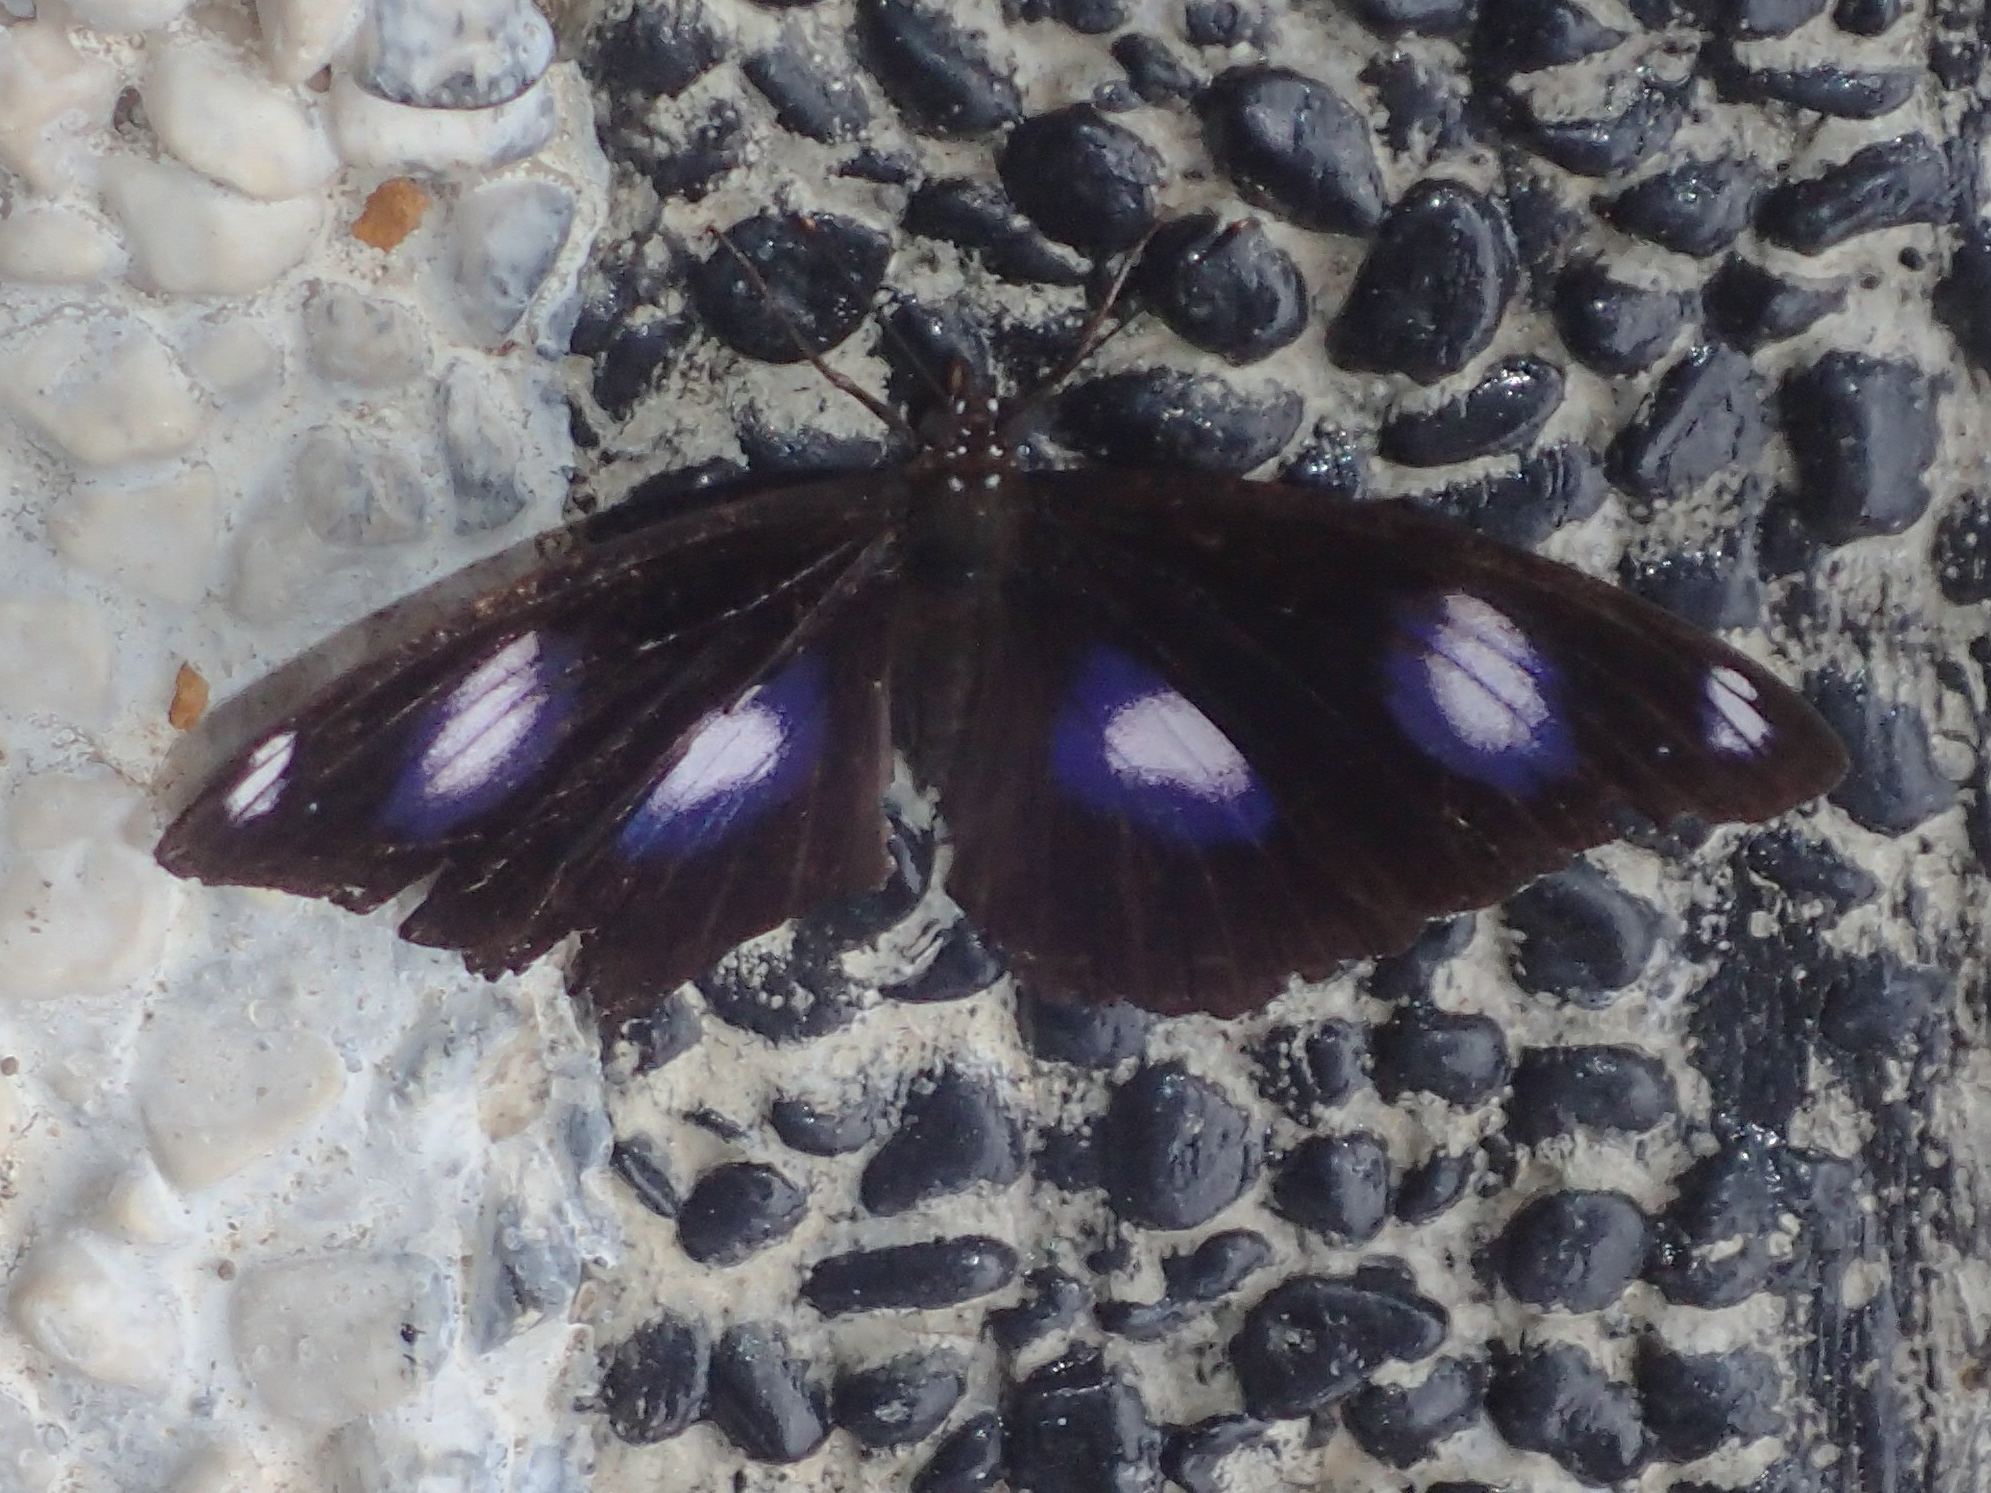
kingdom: Animalia
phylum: Arthropoda
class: Insecta
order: Lepidoptera
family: Nymphalidae
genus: Hypolimnas
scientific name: Hypolimnas bolina
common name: Great eggfly
